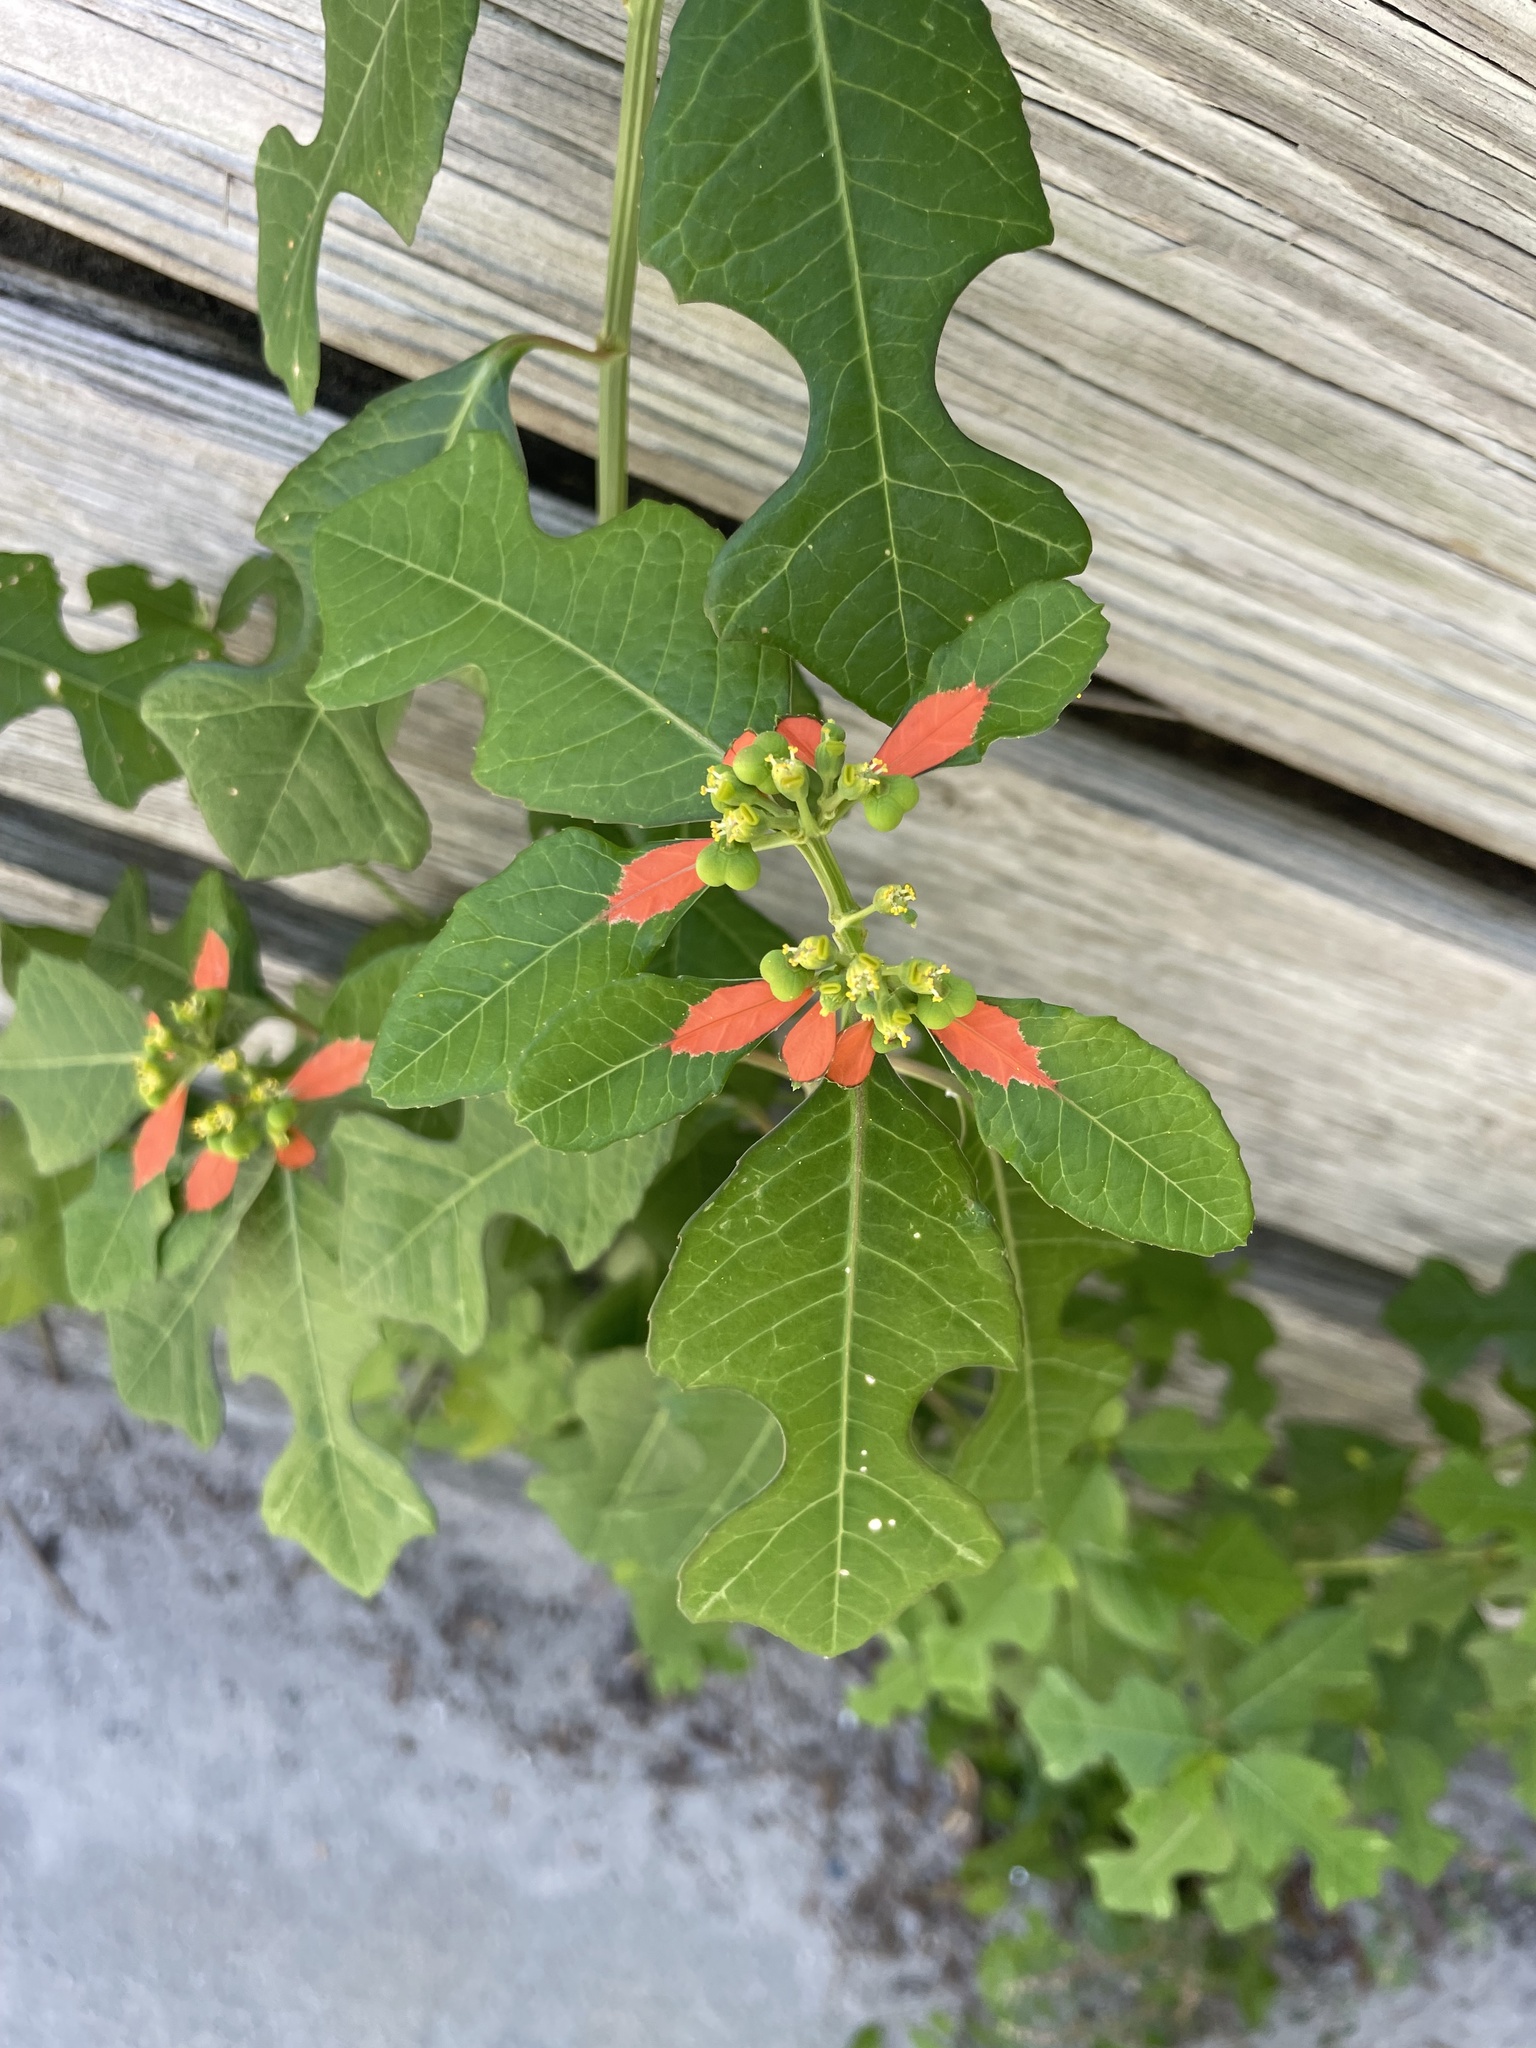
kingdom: Plantae
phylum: Tracheophyta
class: Magnoliopsida
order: Malpighiales
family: Euphorbiaceae
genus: Euphorbia
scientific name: Euphorbia heterophylla
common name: Mexican fireplant
